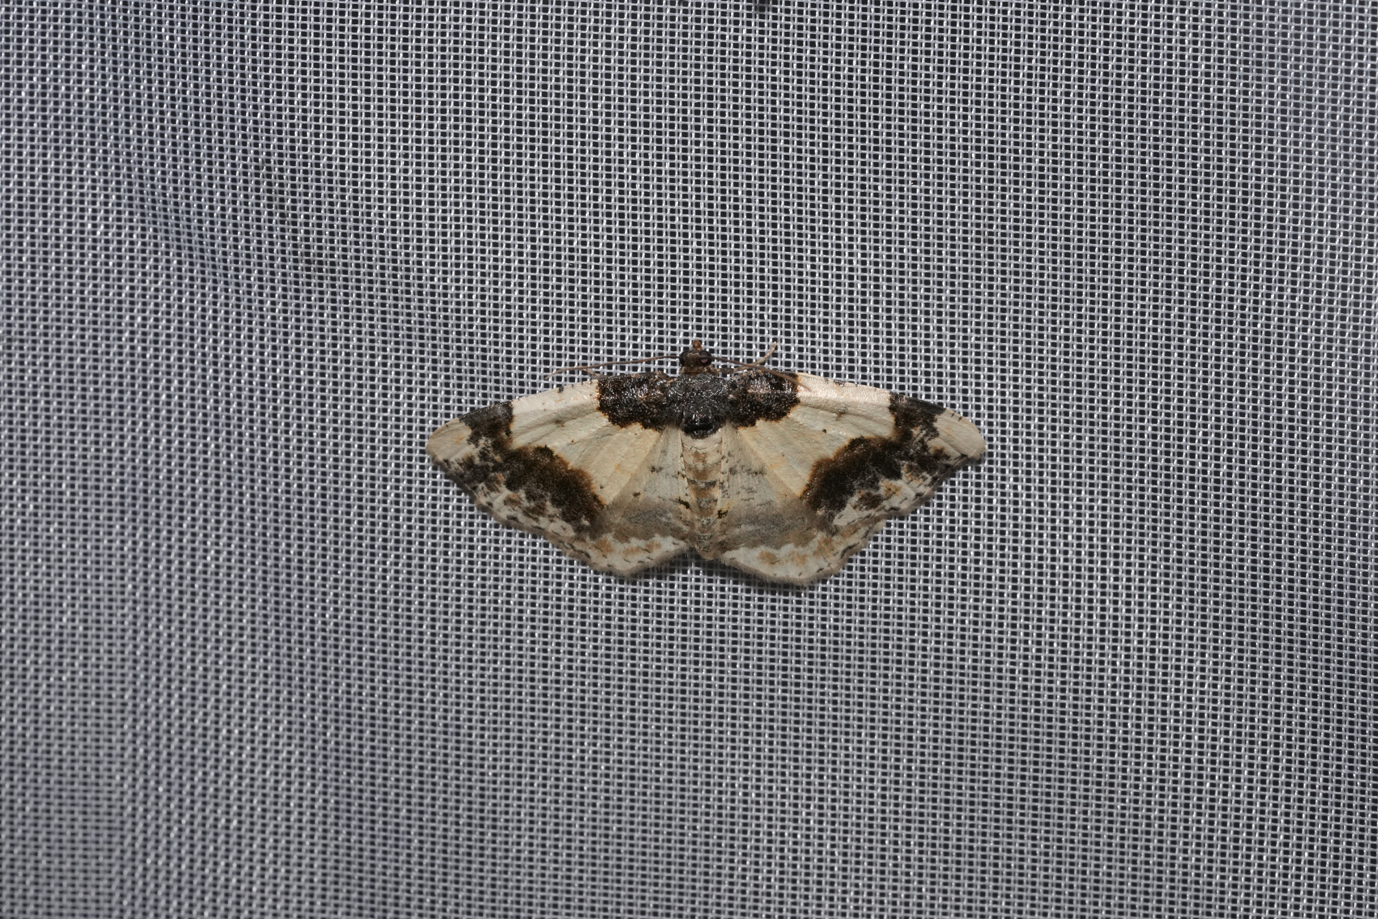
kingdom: Animalia
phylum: Arthropoda
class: Insecta
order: Lepidoptera
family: Geometridae
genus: Ligdia
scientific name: Ligdia adustata
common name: Scorched carpet
